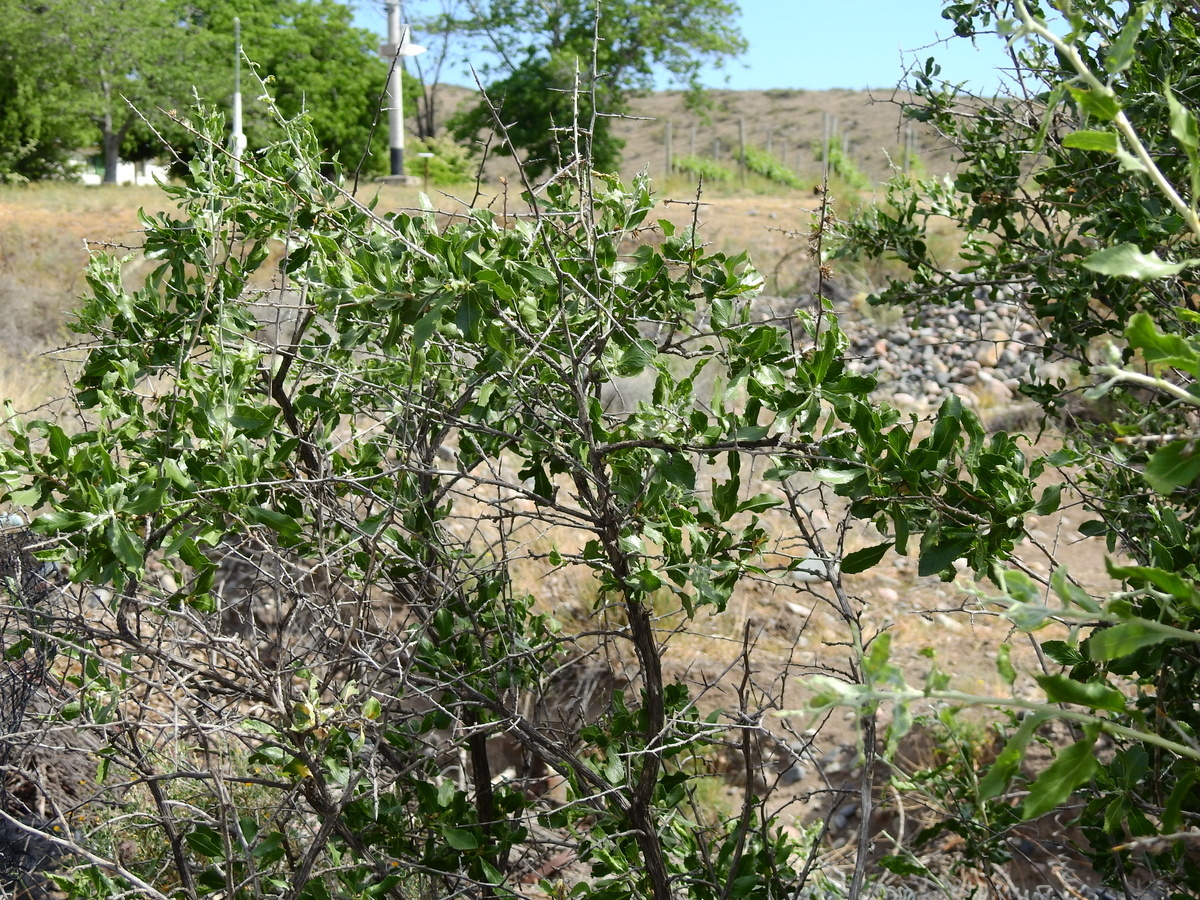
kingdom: Plantae
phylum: Tracheophyta
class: Magnoliopsida
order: Asterales
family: Asteraceae
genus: Proustia
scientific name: Proustia cuneifolia
